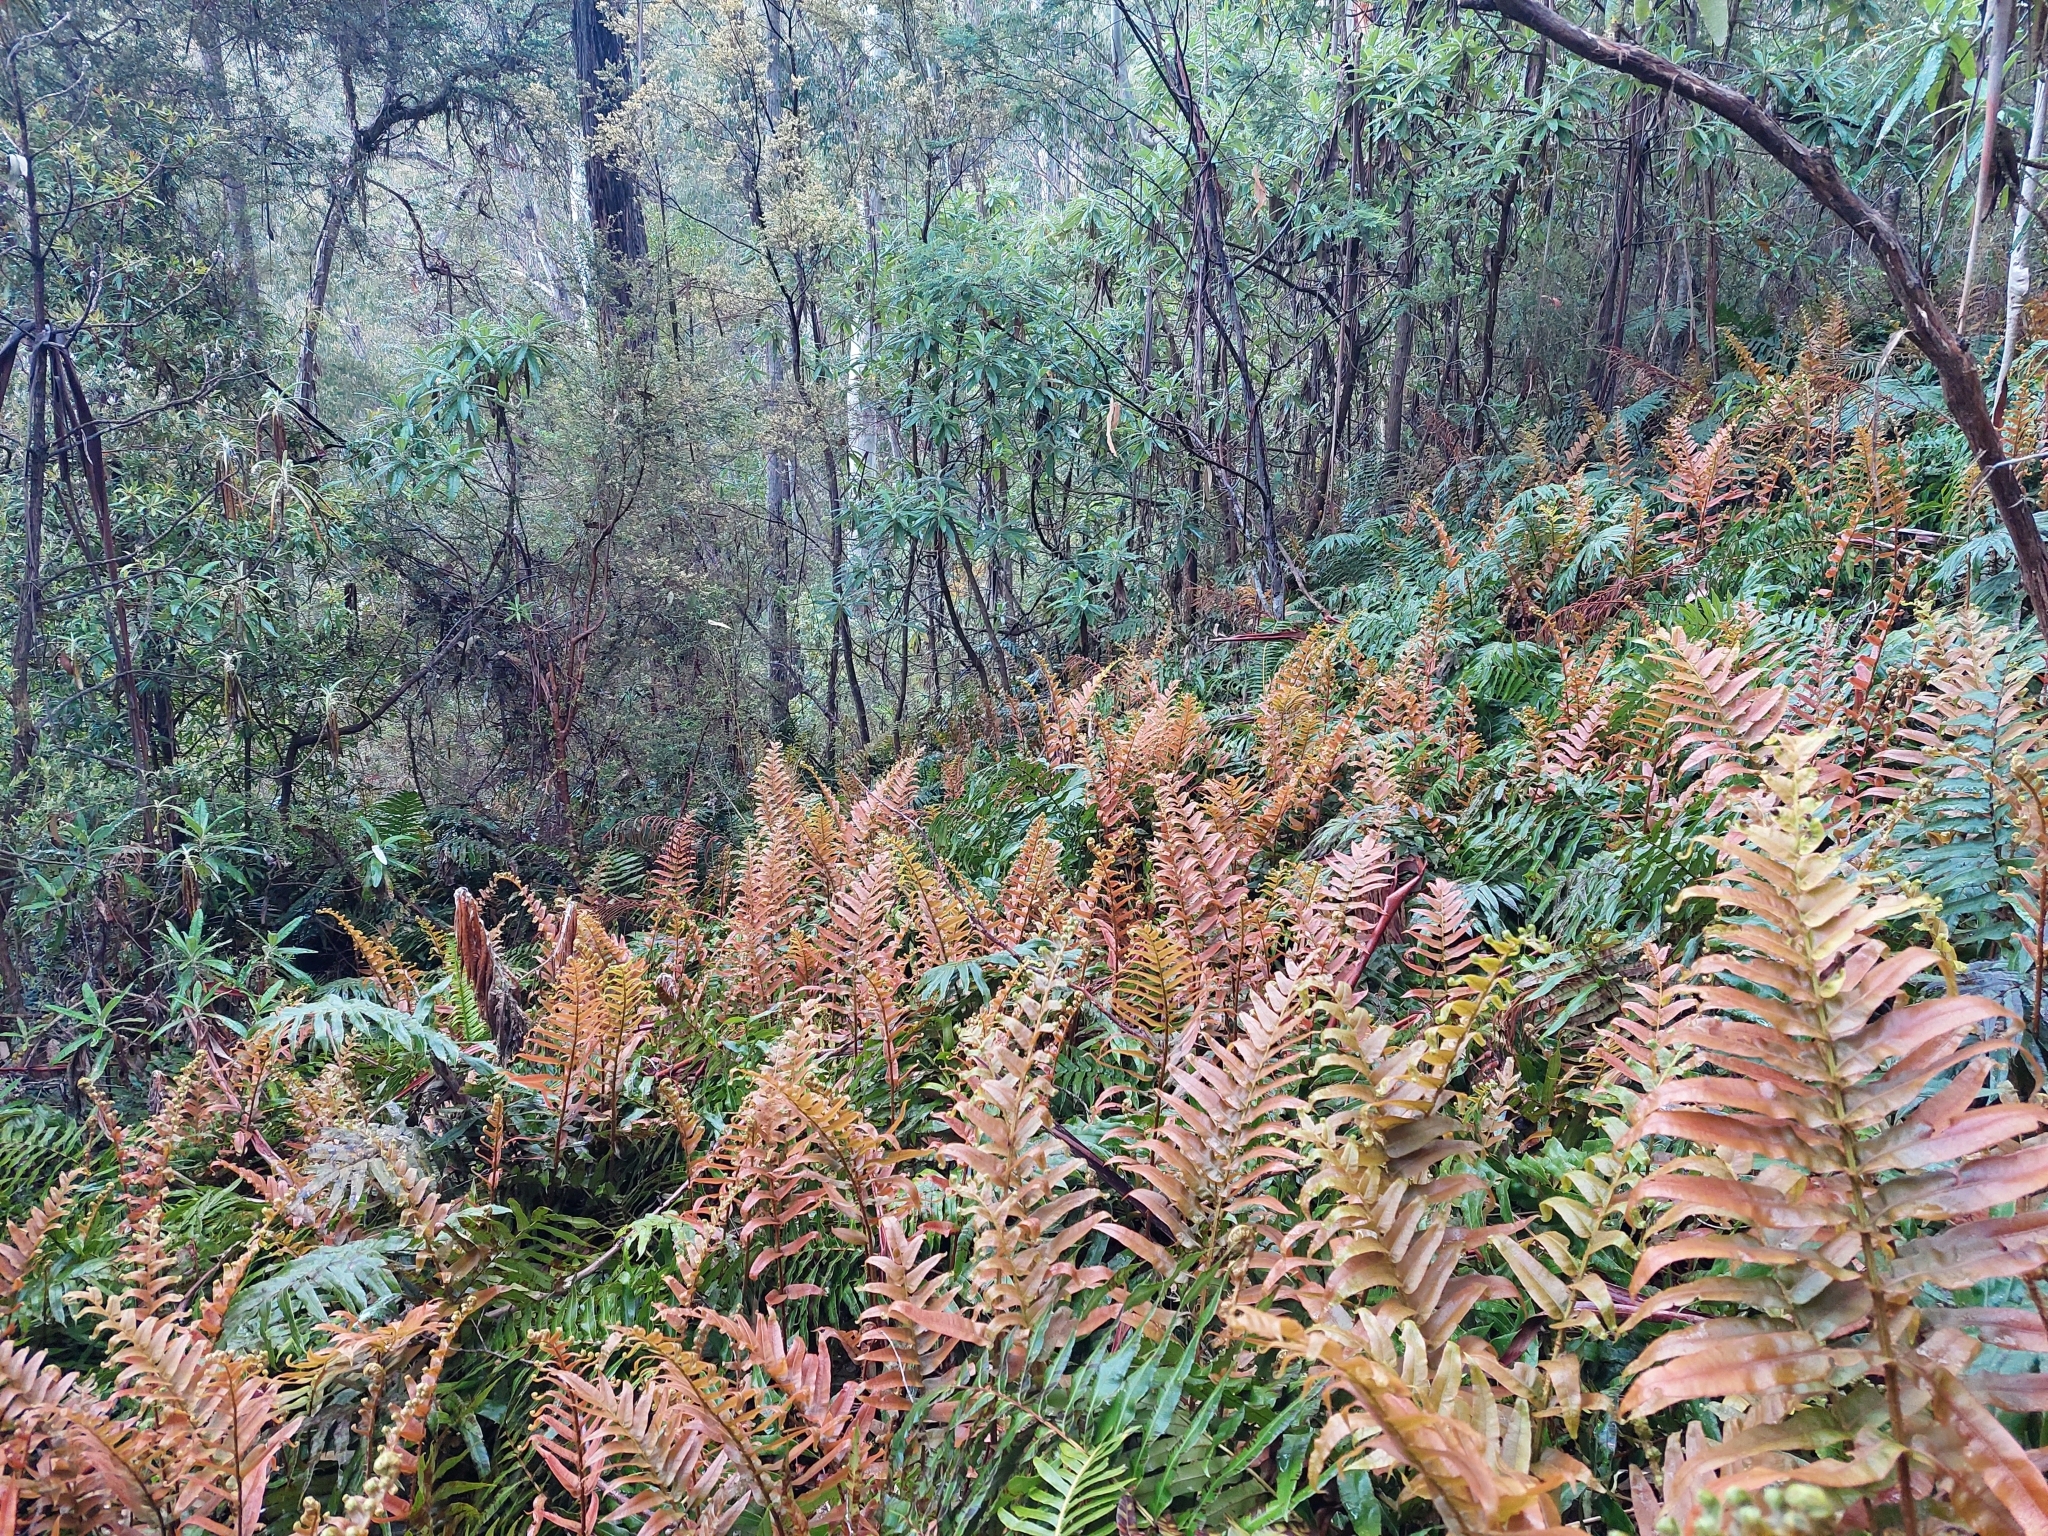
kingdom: Plantae
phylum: Tracheophyta
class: Polypodiopsida
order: Polypodiales
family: Blechnaceae
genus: Parablechnum
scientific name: Parablechnum wattsii
